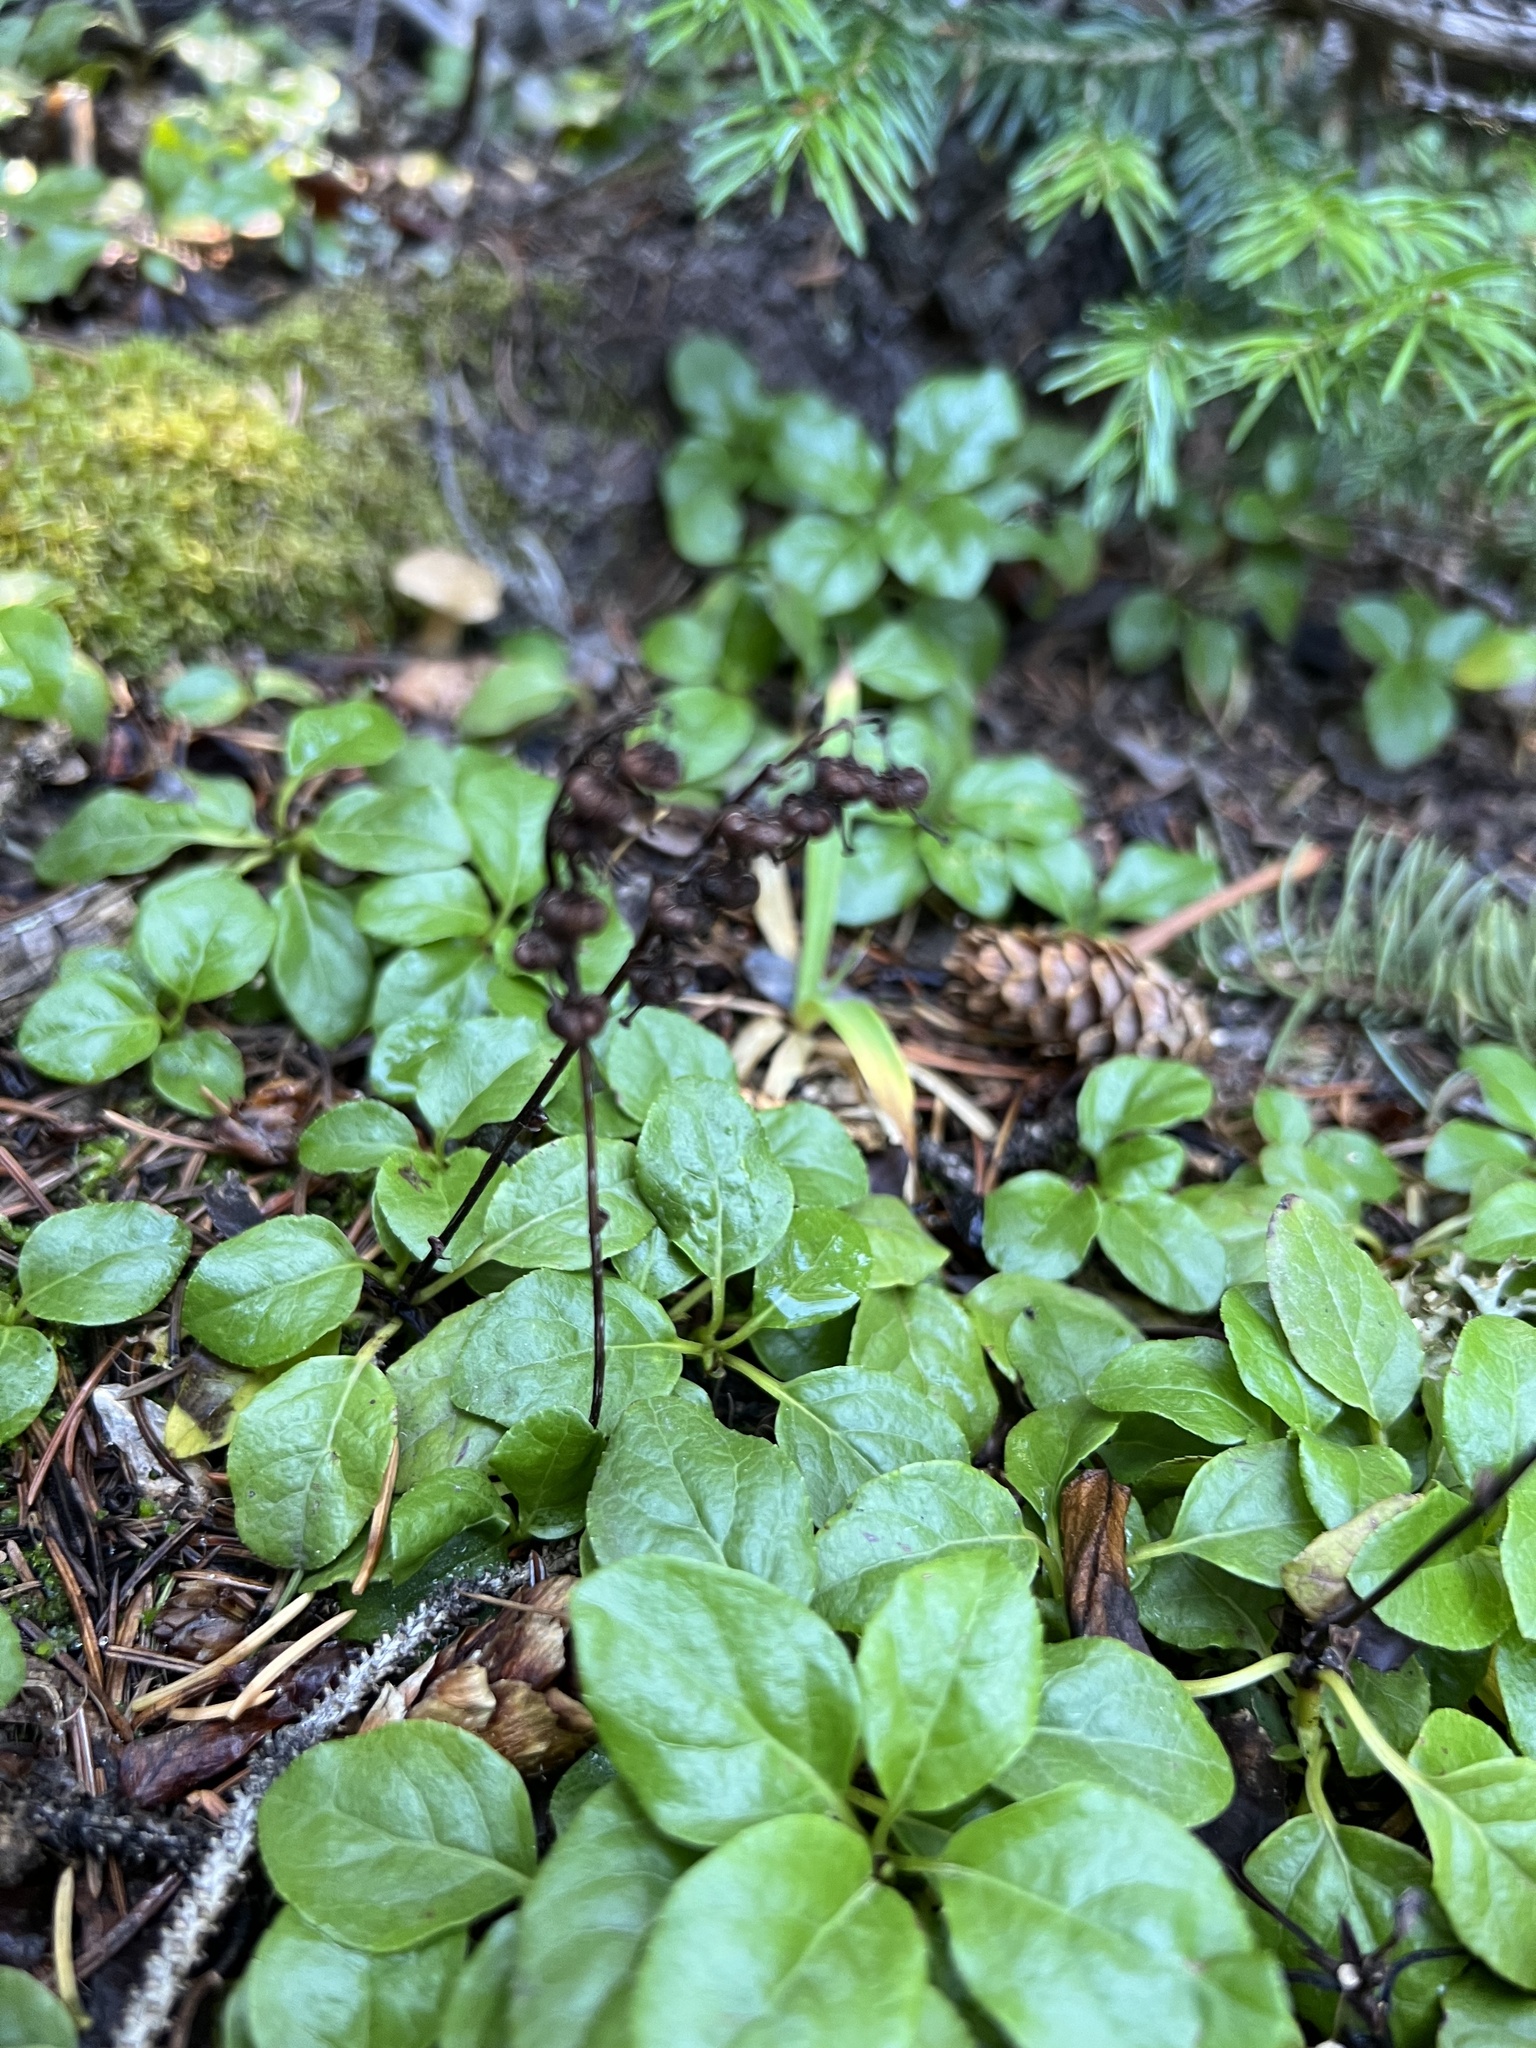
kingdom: Plantae
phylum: Tracheophyta
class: Magnoliopsida
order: Ericales
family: Ericaceae
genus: Orthilia
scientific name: Orthilia secunda
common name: One-sided orthilia
